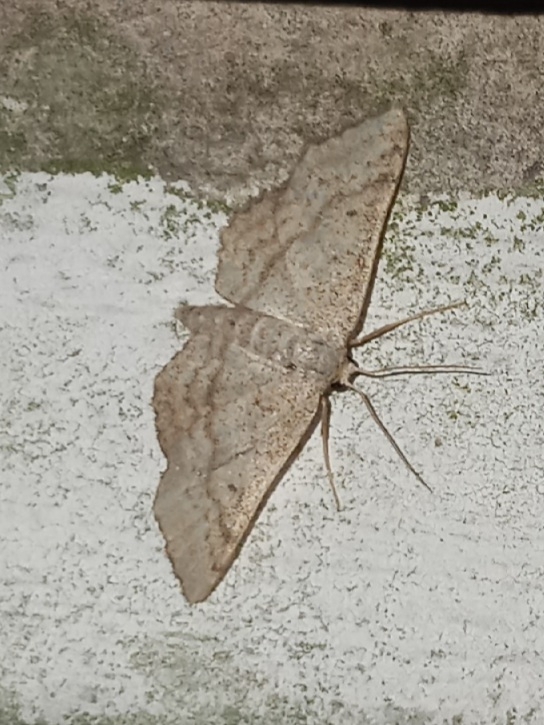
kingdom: Animalia
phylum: Arthropoda
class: Insecta
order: Lepidoptera
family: Geometridae
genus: Lobocleta
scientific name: Lobocleta ossularia
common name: Drab brown wave
